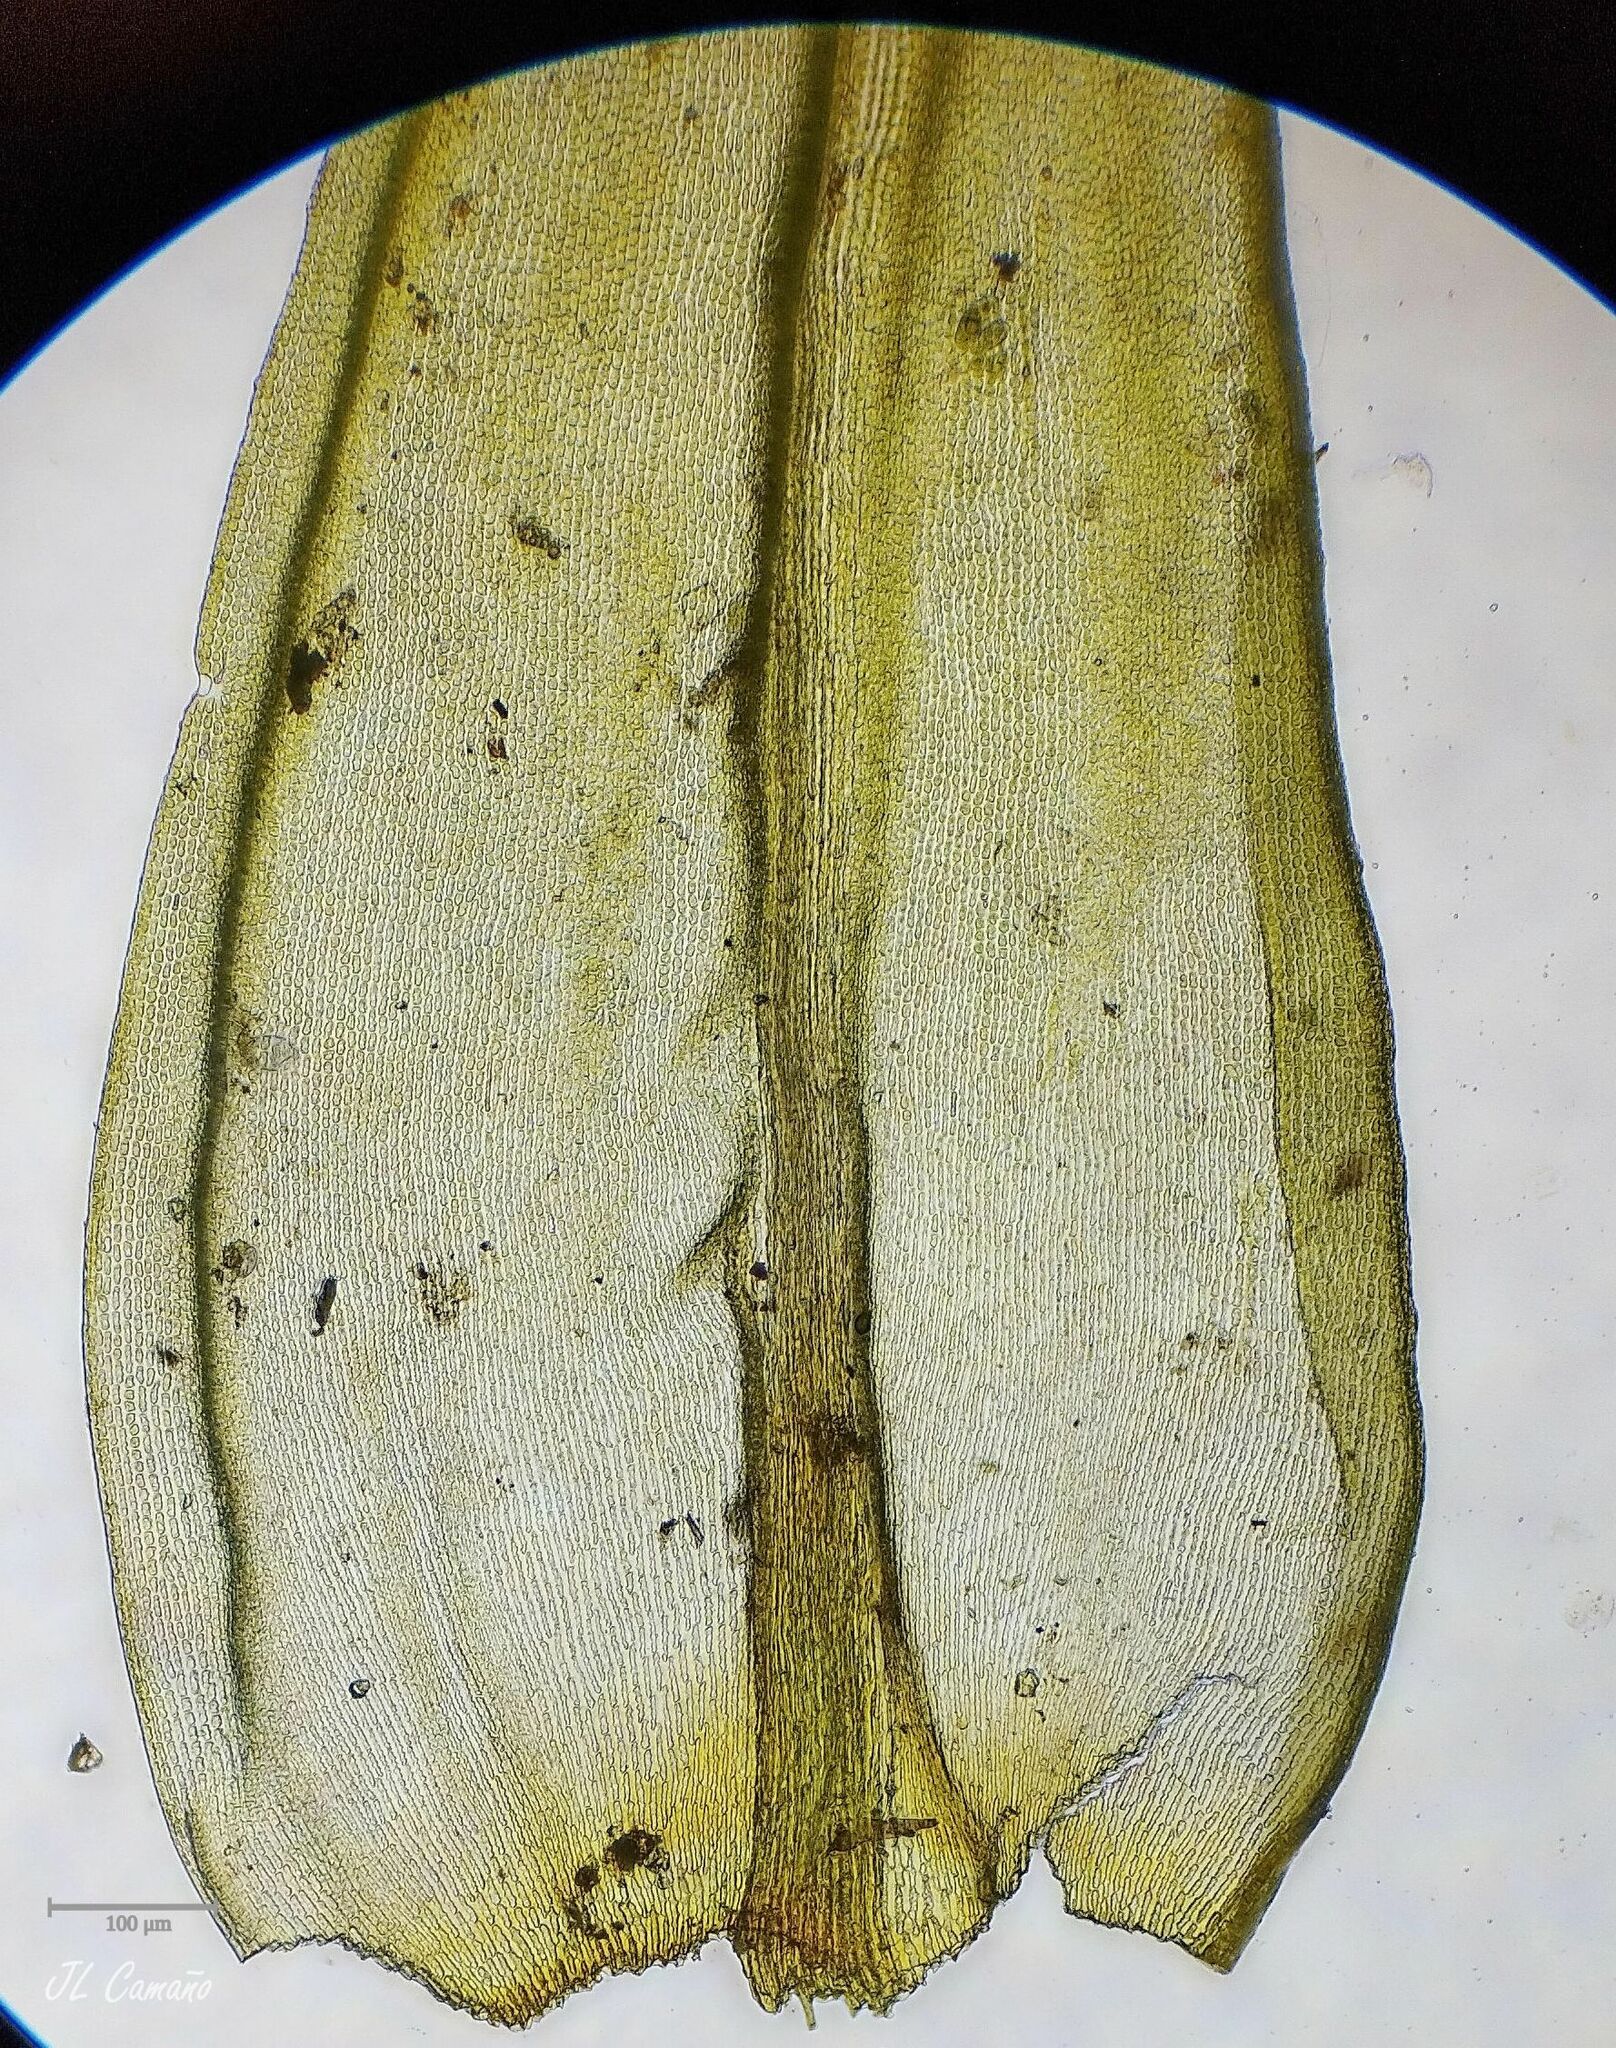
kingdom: Plantae
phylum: Bryophyta
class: Bryopsida
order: Grimmiales
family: Grimmiaceae
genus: Codriophorus
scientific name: Codriophorus acicularis
